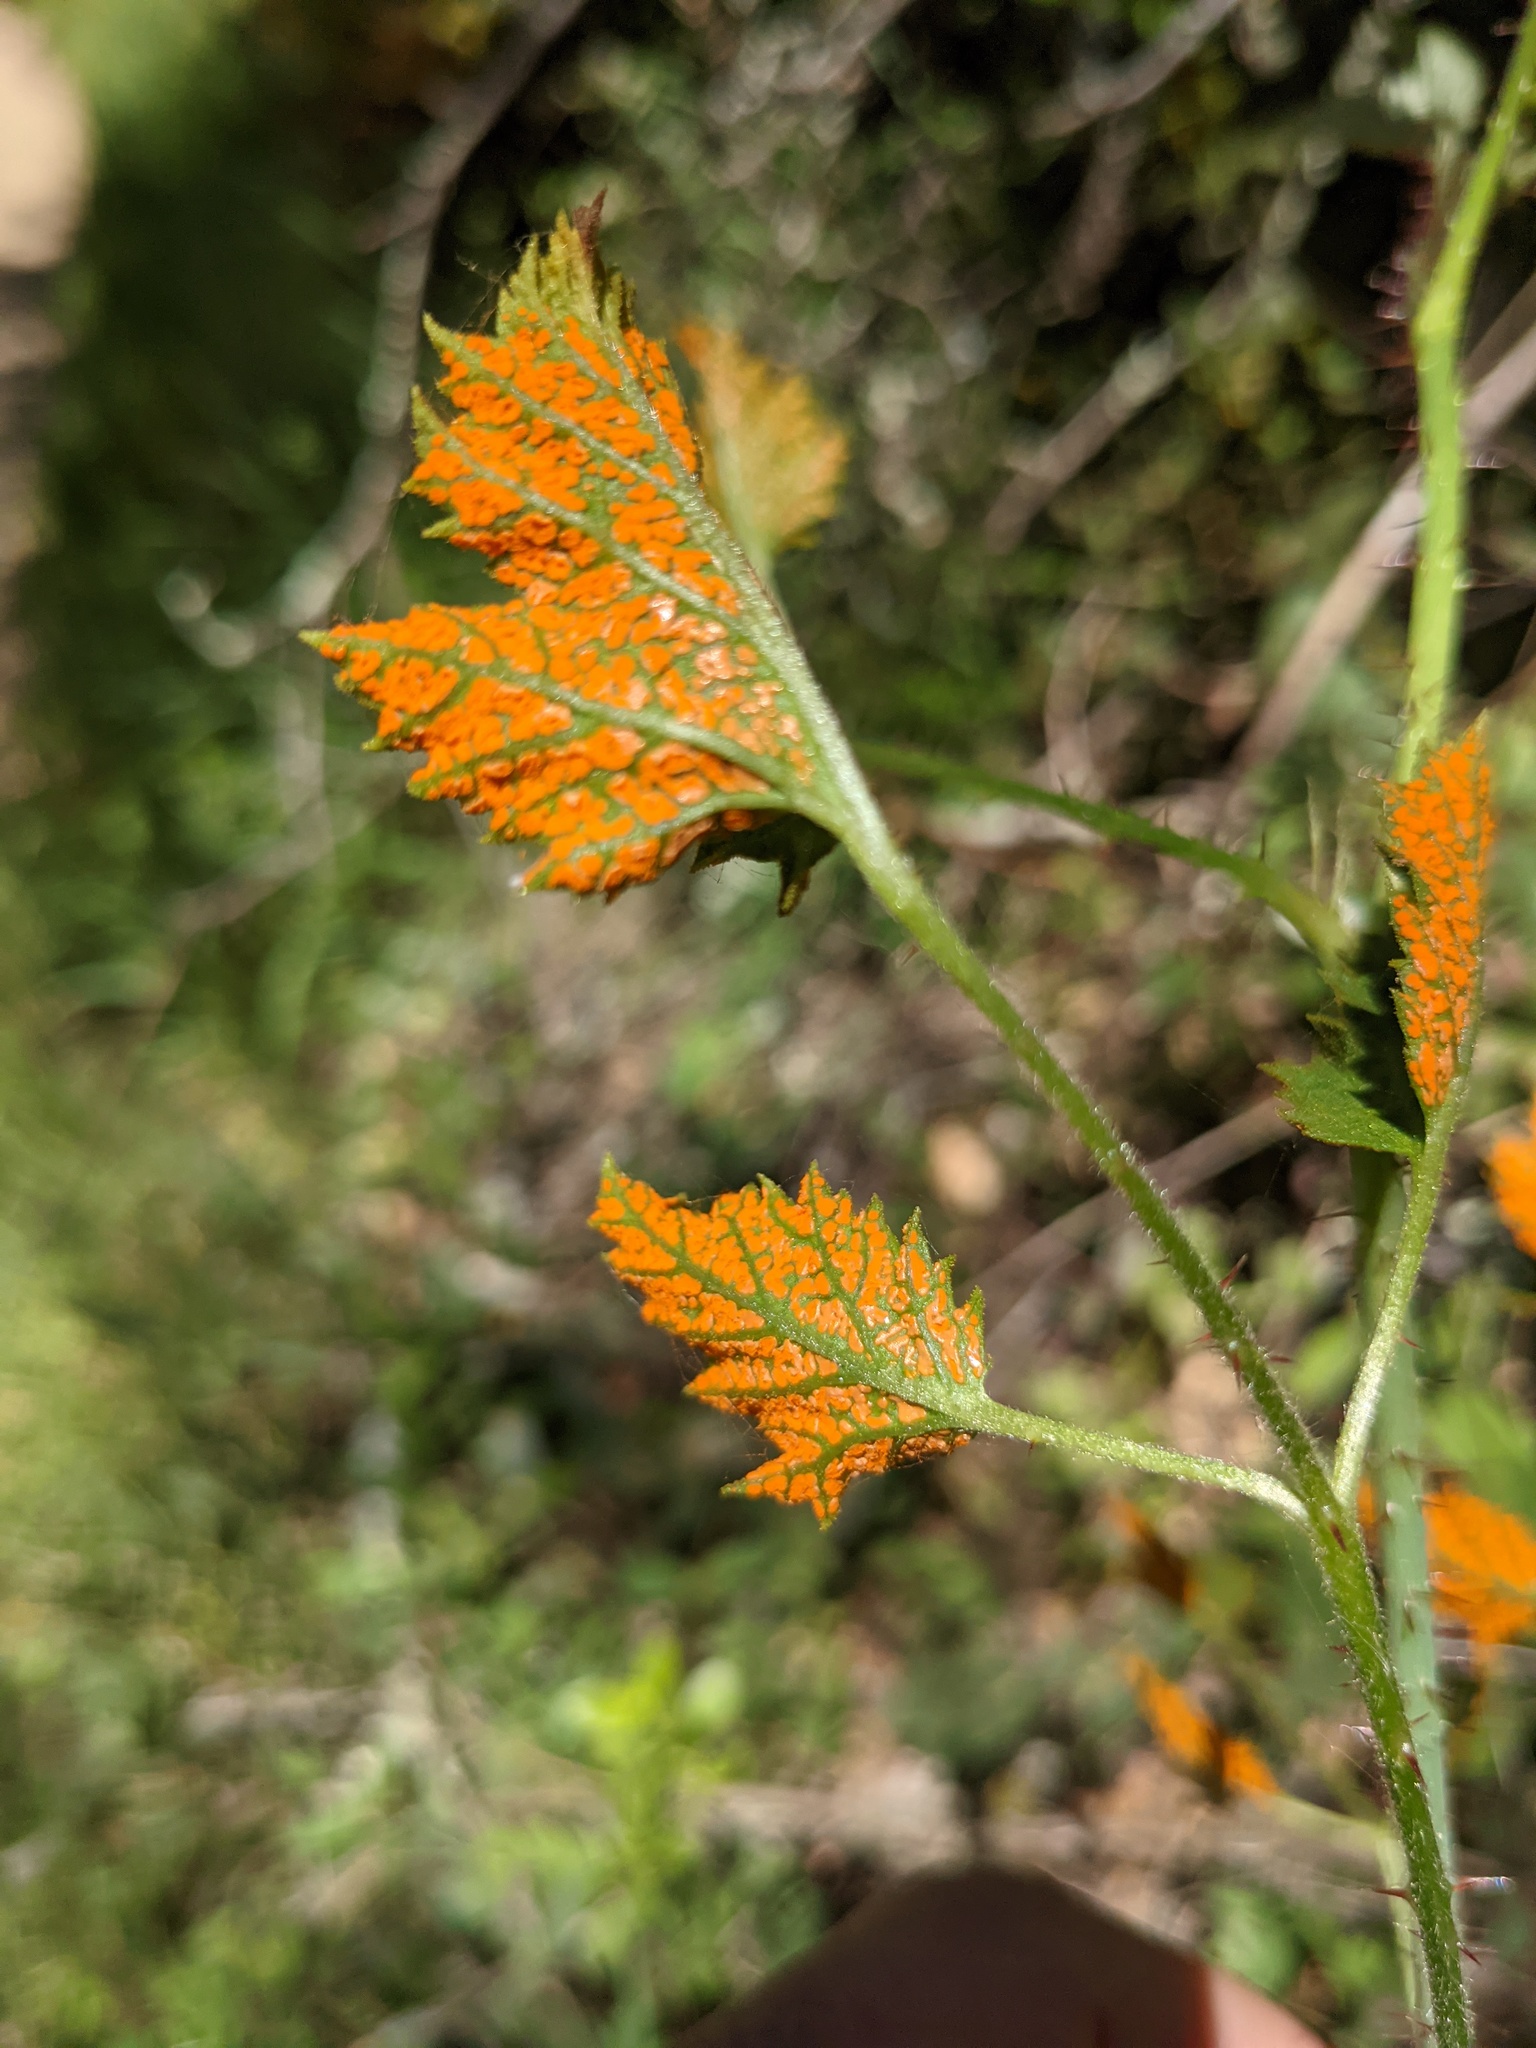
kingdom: Fungi
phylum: Basidiomycota
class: Pucciniomycetes
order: Pucciniales
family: Phragmidiaceae
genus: Arthuriomyces
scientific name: Arthuriomyces peckianus
